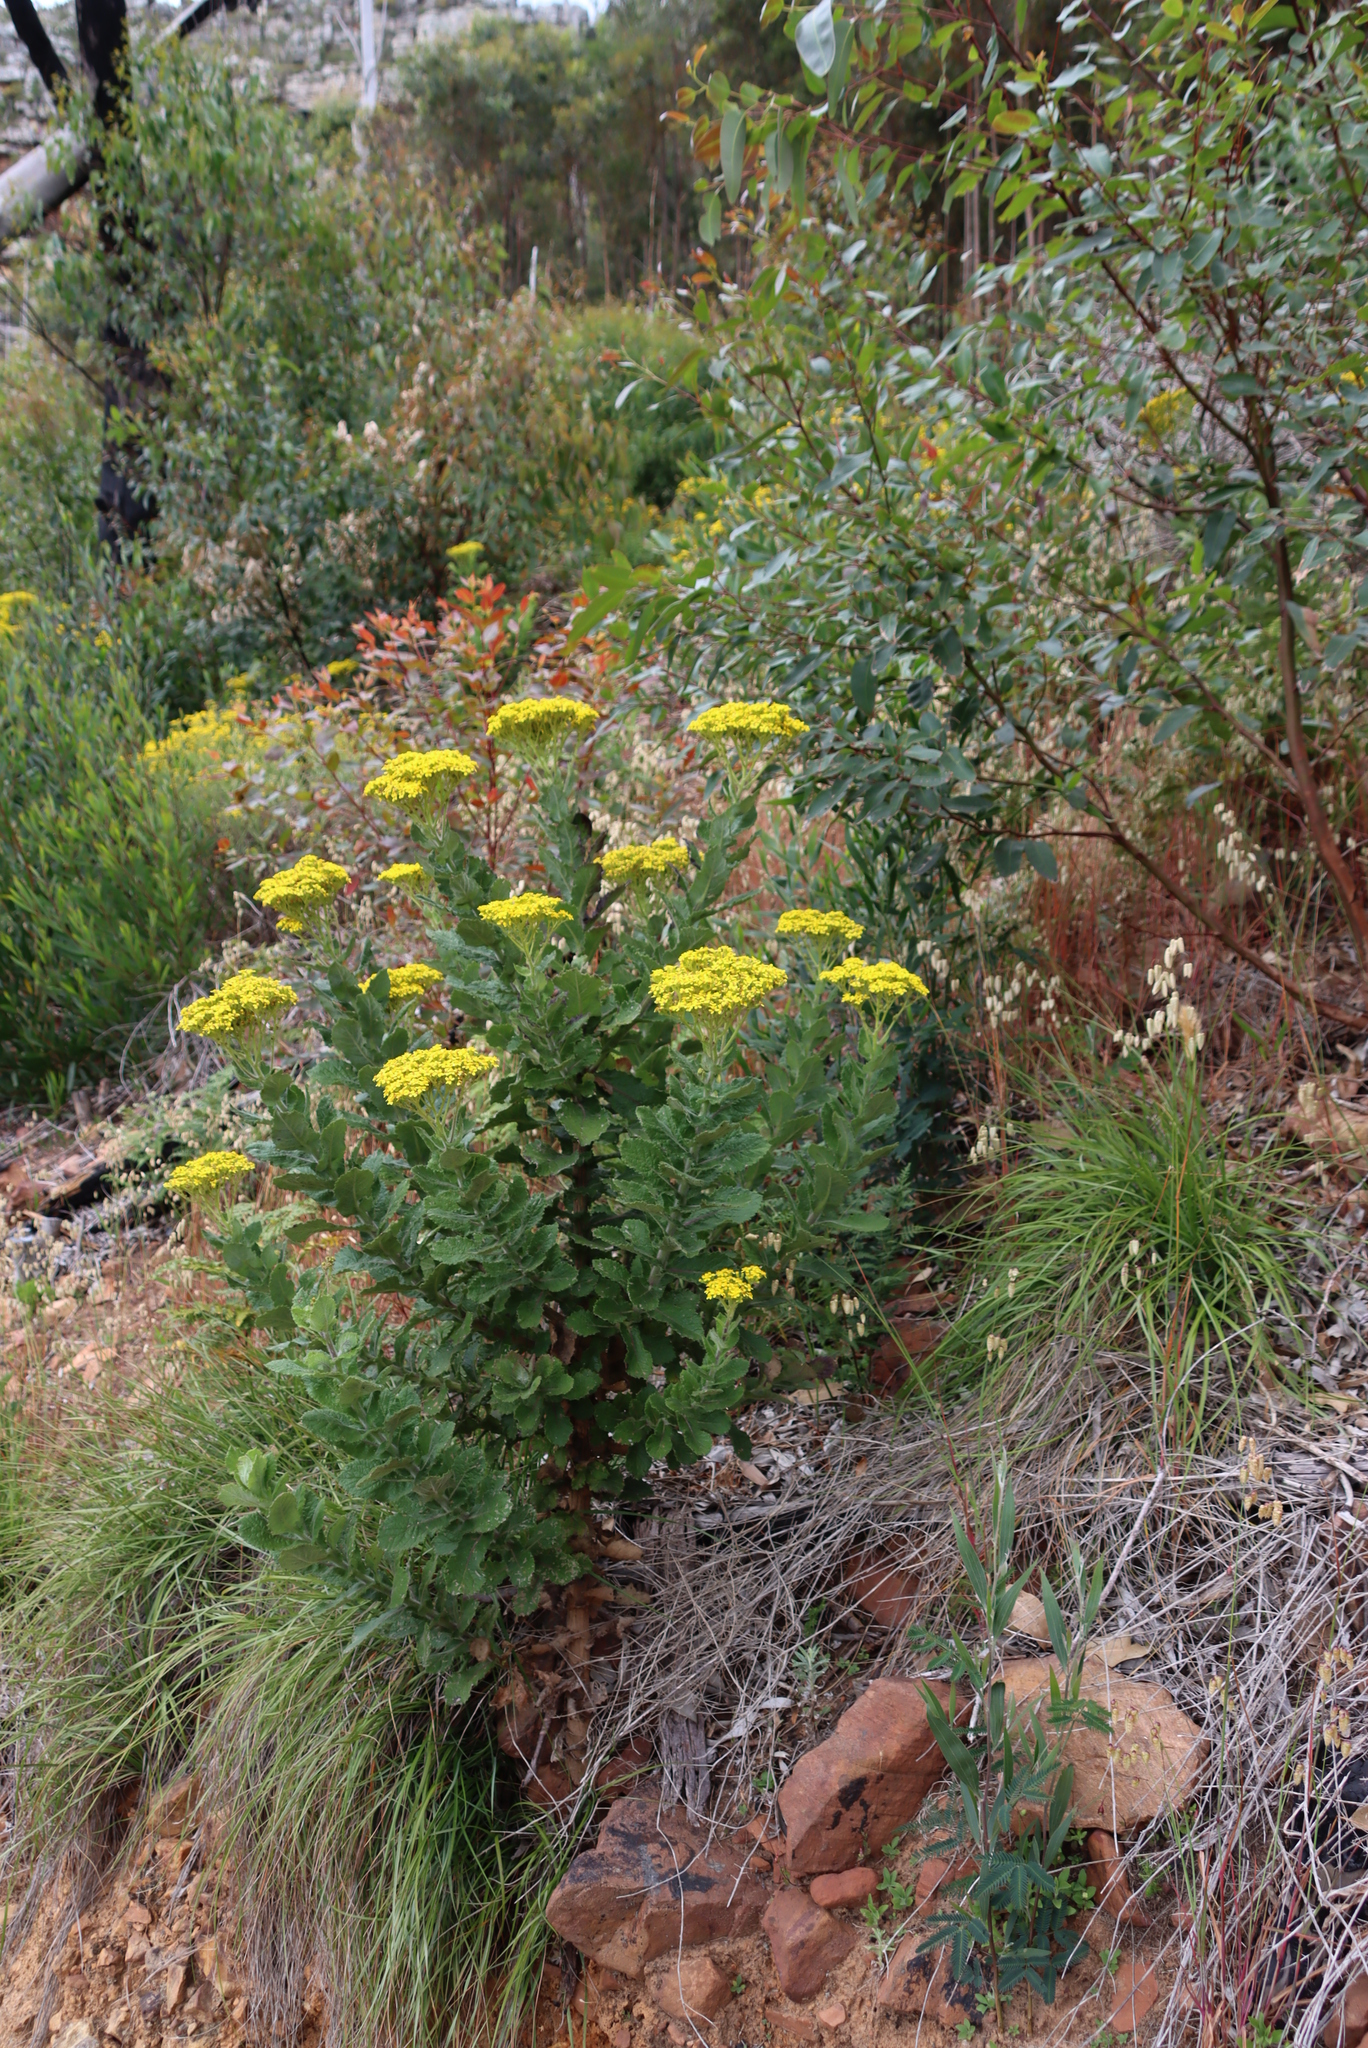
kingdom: Plantae
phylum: Tracheophyta
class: Magnoliopsida
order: Asterales
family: Asteraceae
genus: Senecio
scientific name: Senecio rigidus
